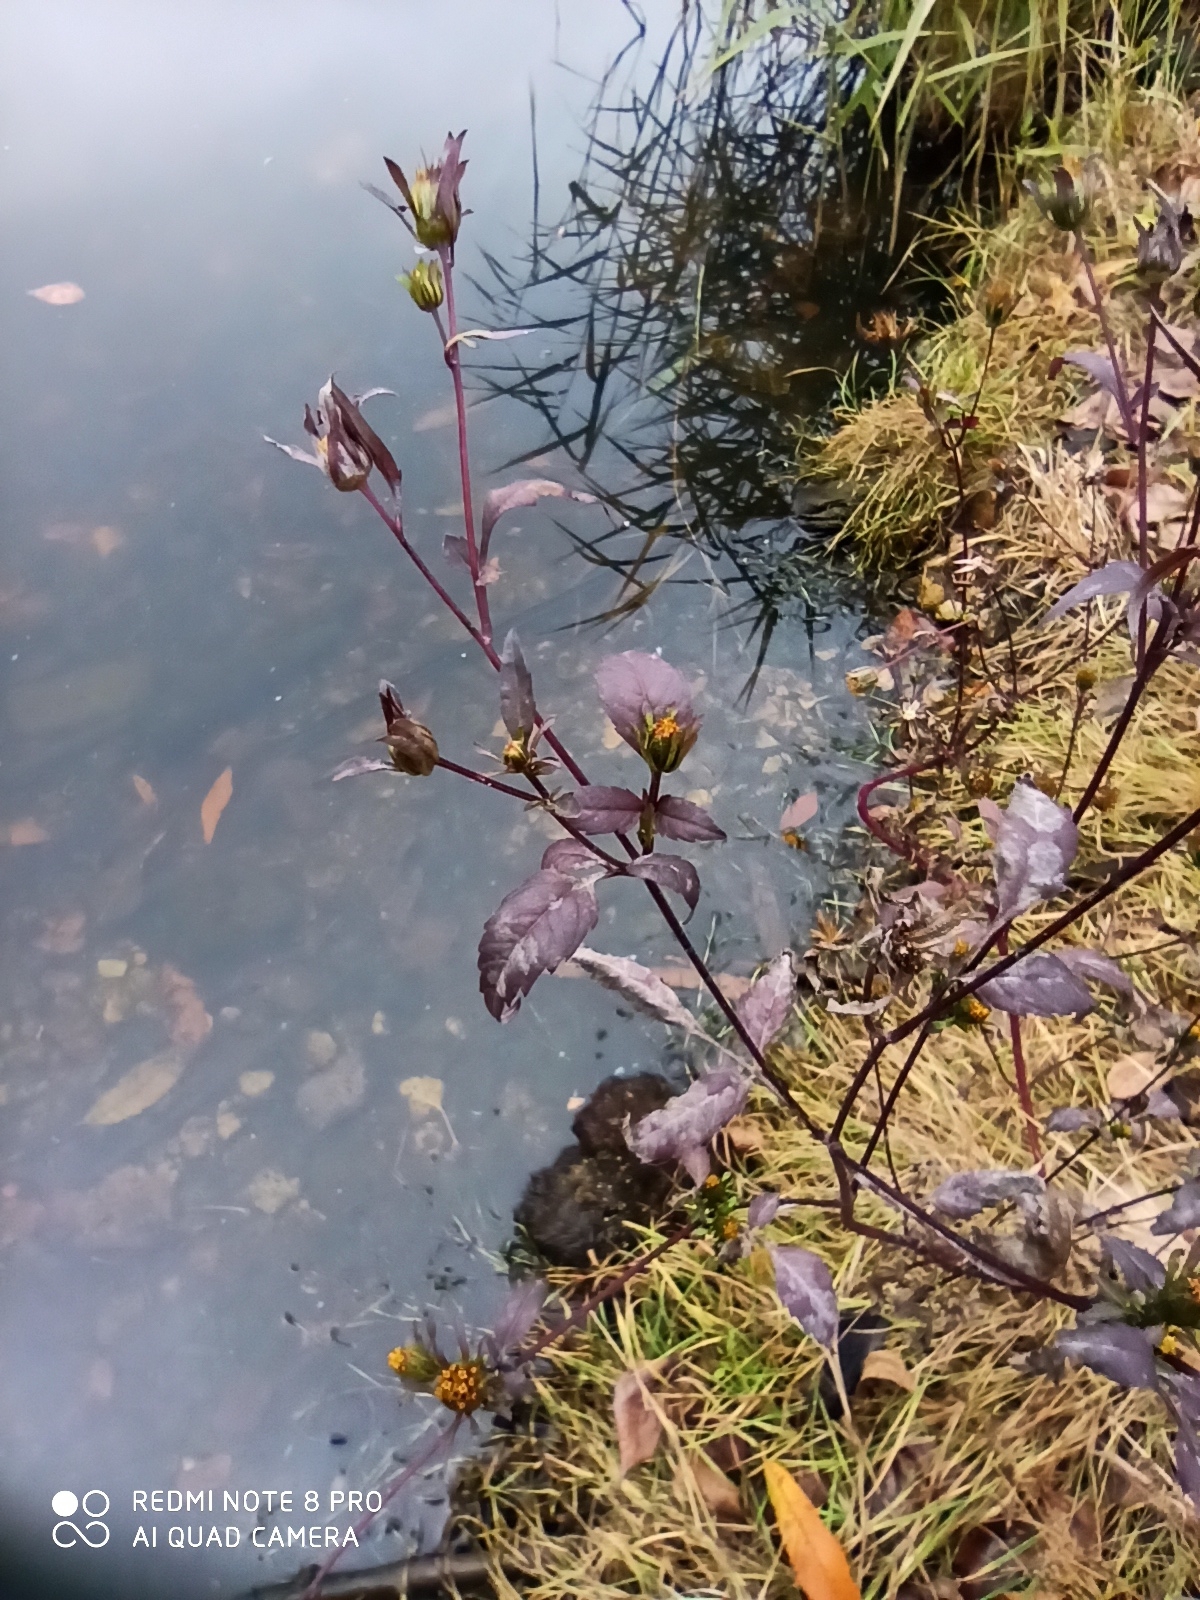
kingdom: Plantae
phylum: Tracheophyta
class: Magnoliopsida
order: Asterales
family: Asteraceae
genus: Bidens
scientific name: Bidens frondosa
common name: Beggarticks
